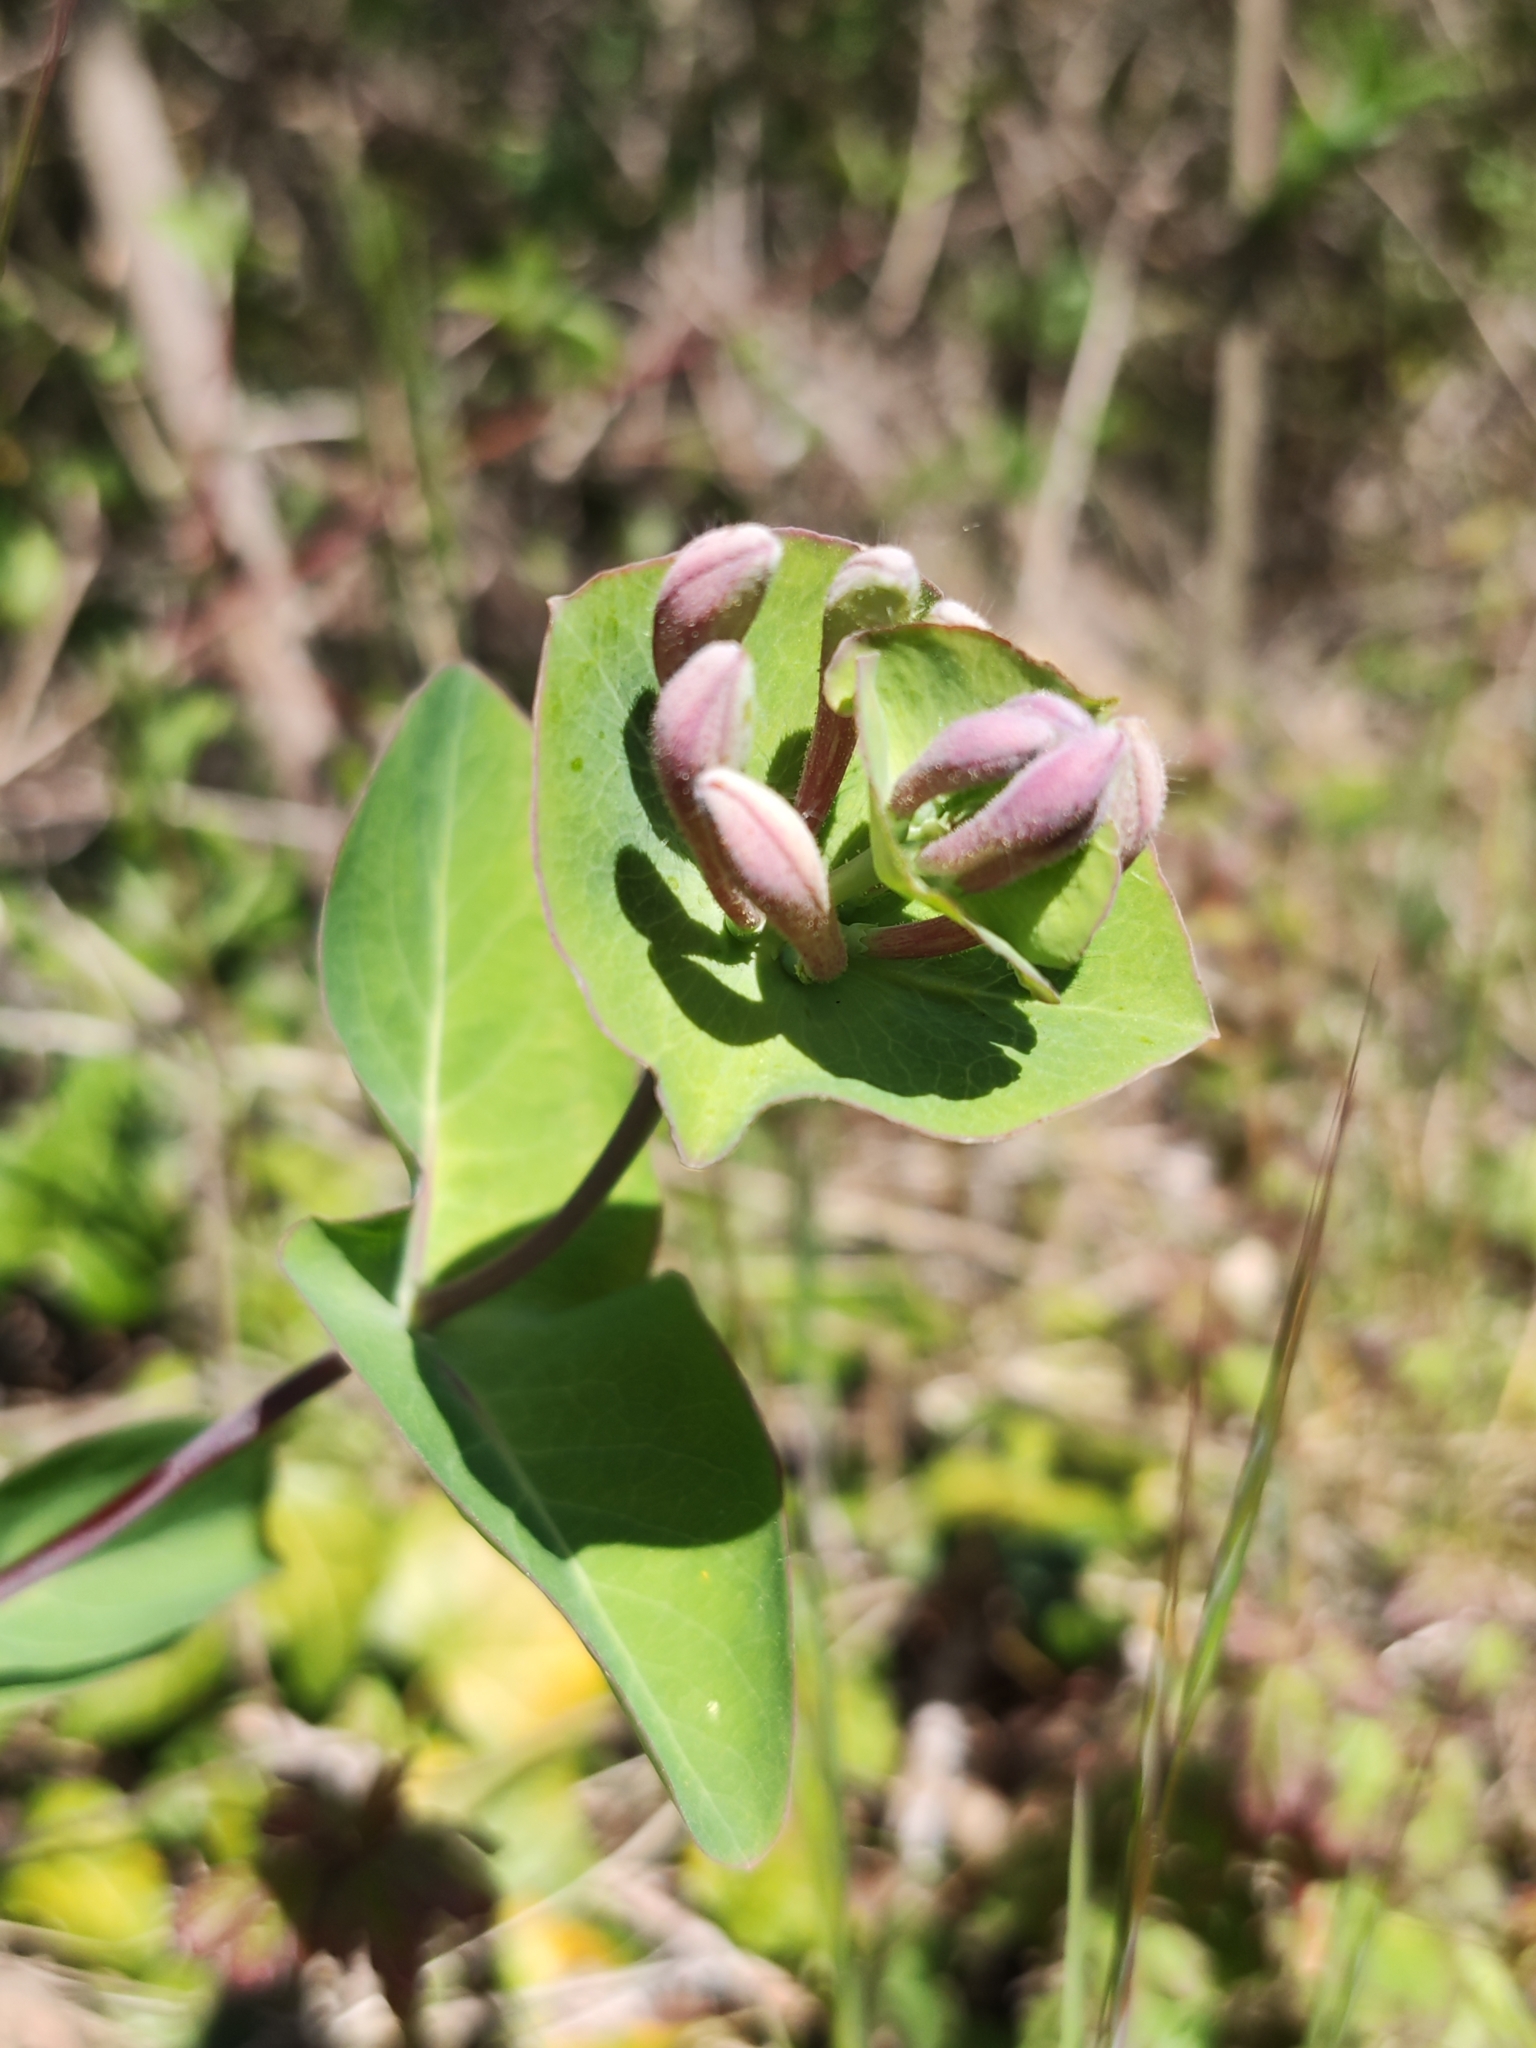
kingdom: Plantae
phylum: Tracheophyta
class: Magnoliopsida
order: Dipsacales
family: Caprifoliaceae
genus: Lonicera
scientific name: Lonicera caprifolium
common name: Perfoliate honeysuckle
